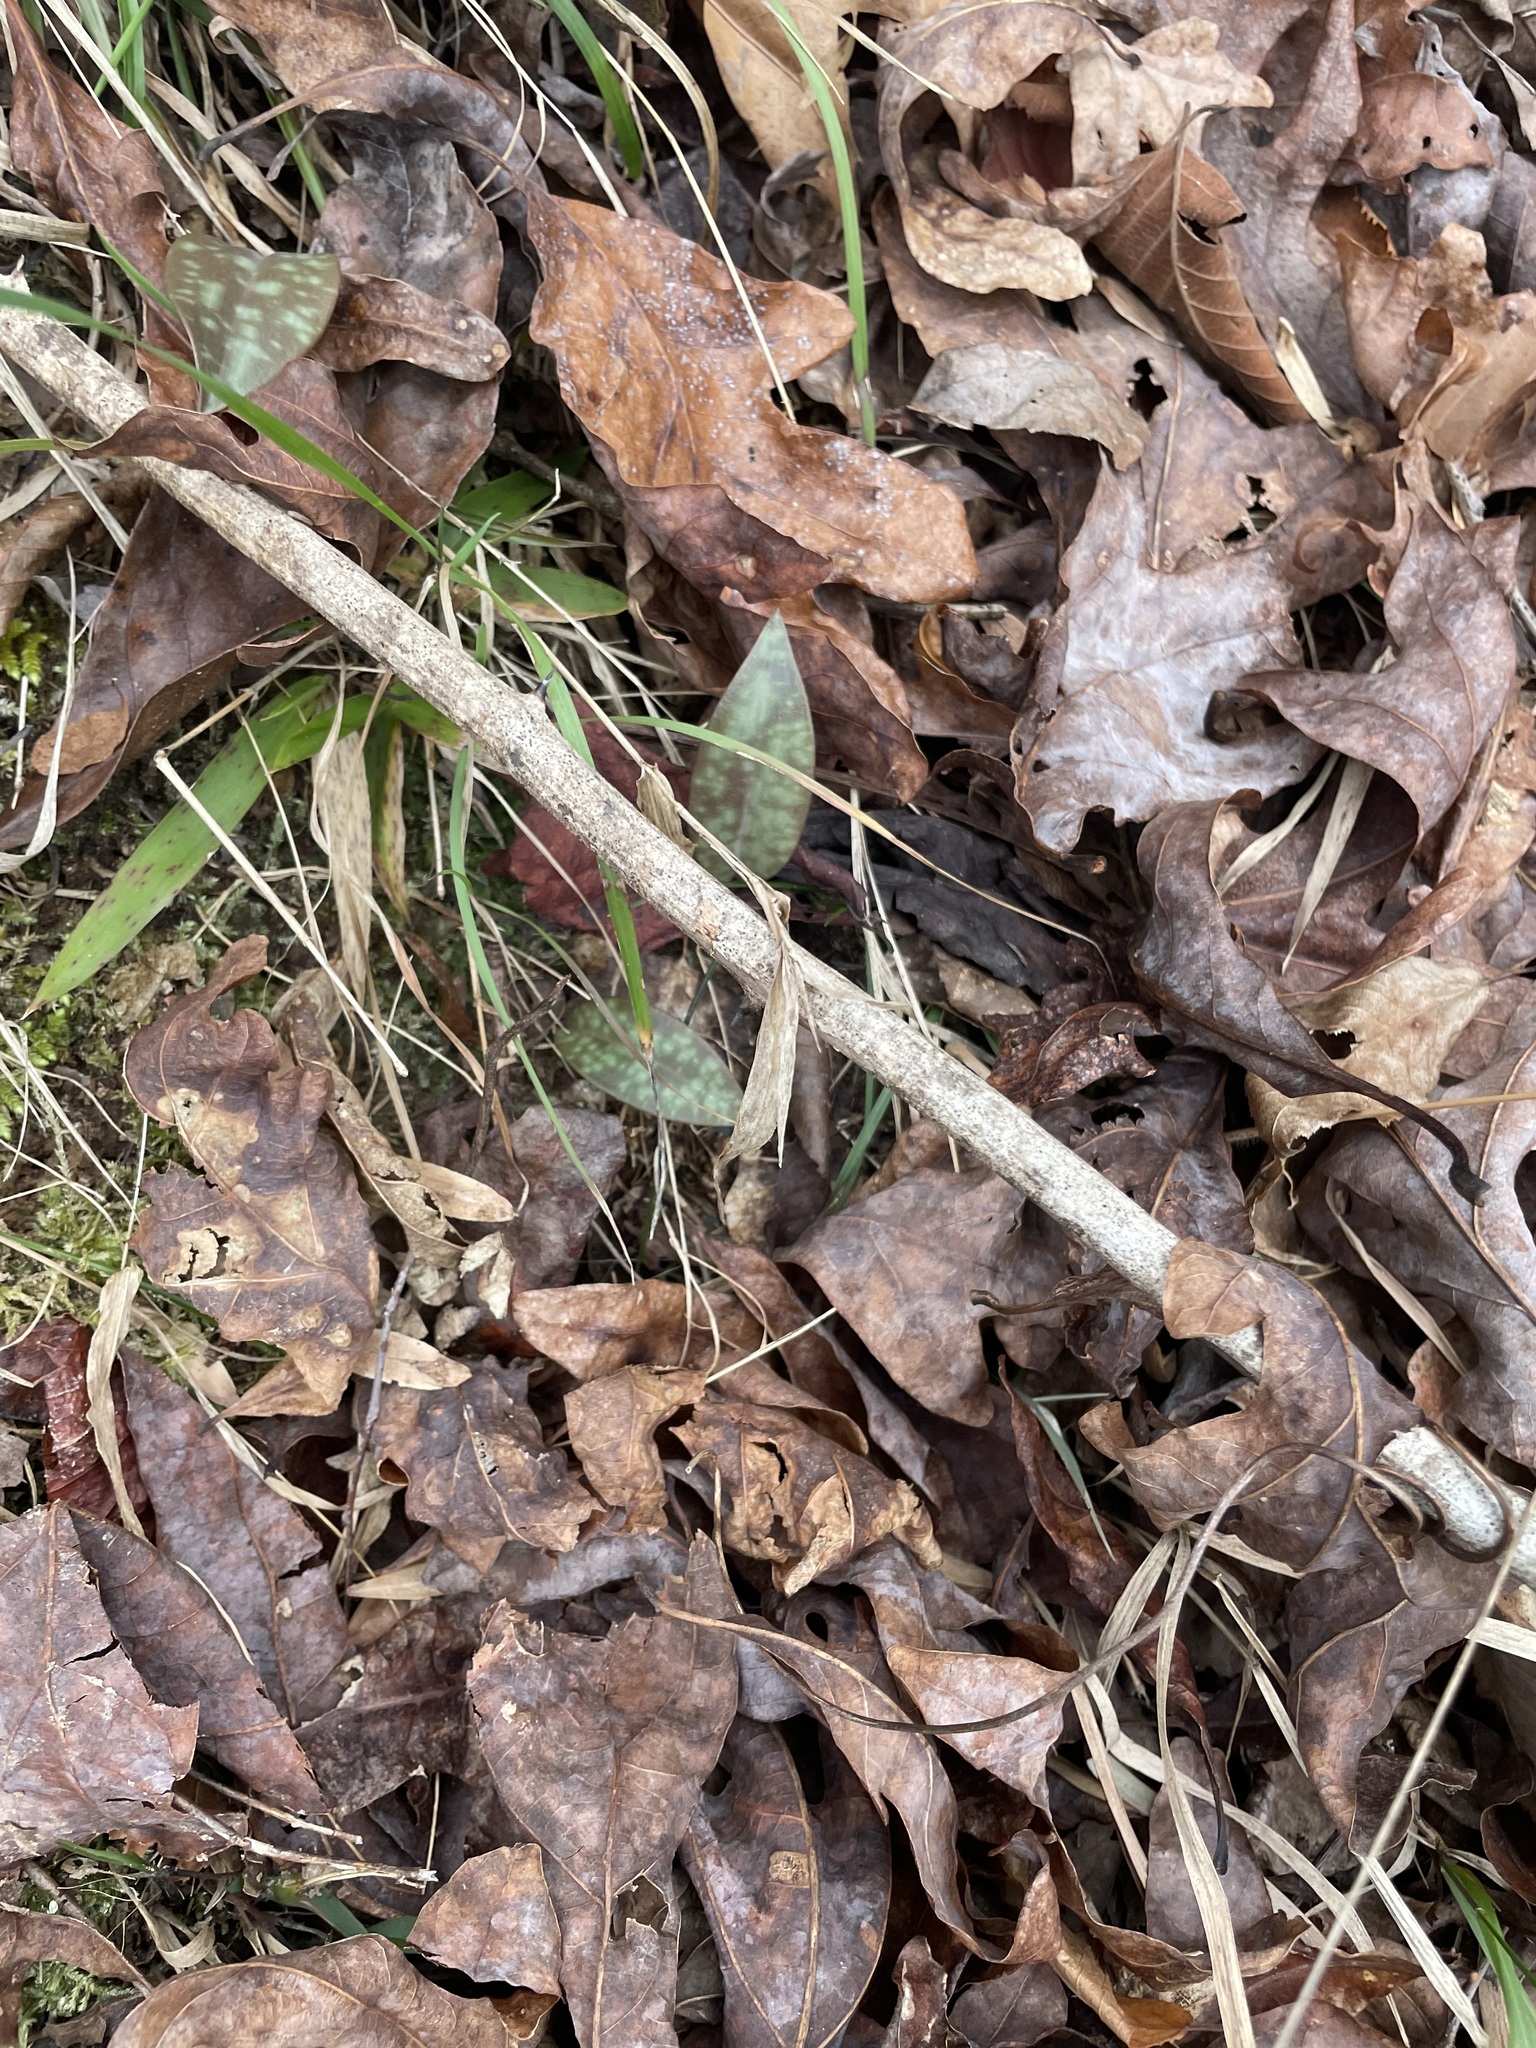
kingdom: Plantae
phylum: Tracheophyta
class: Liliopsida
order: Liliales
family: Liliaceae
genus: Erythronium
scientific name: Erythronium umbilicatum
